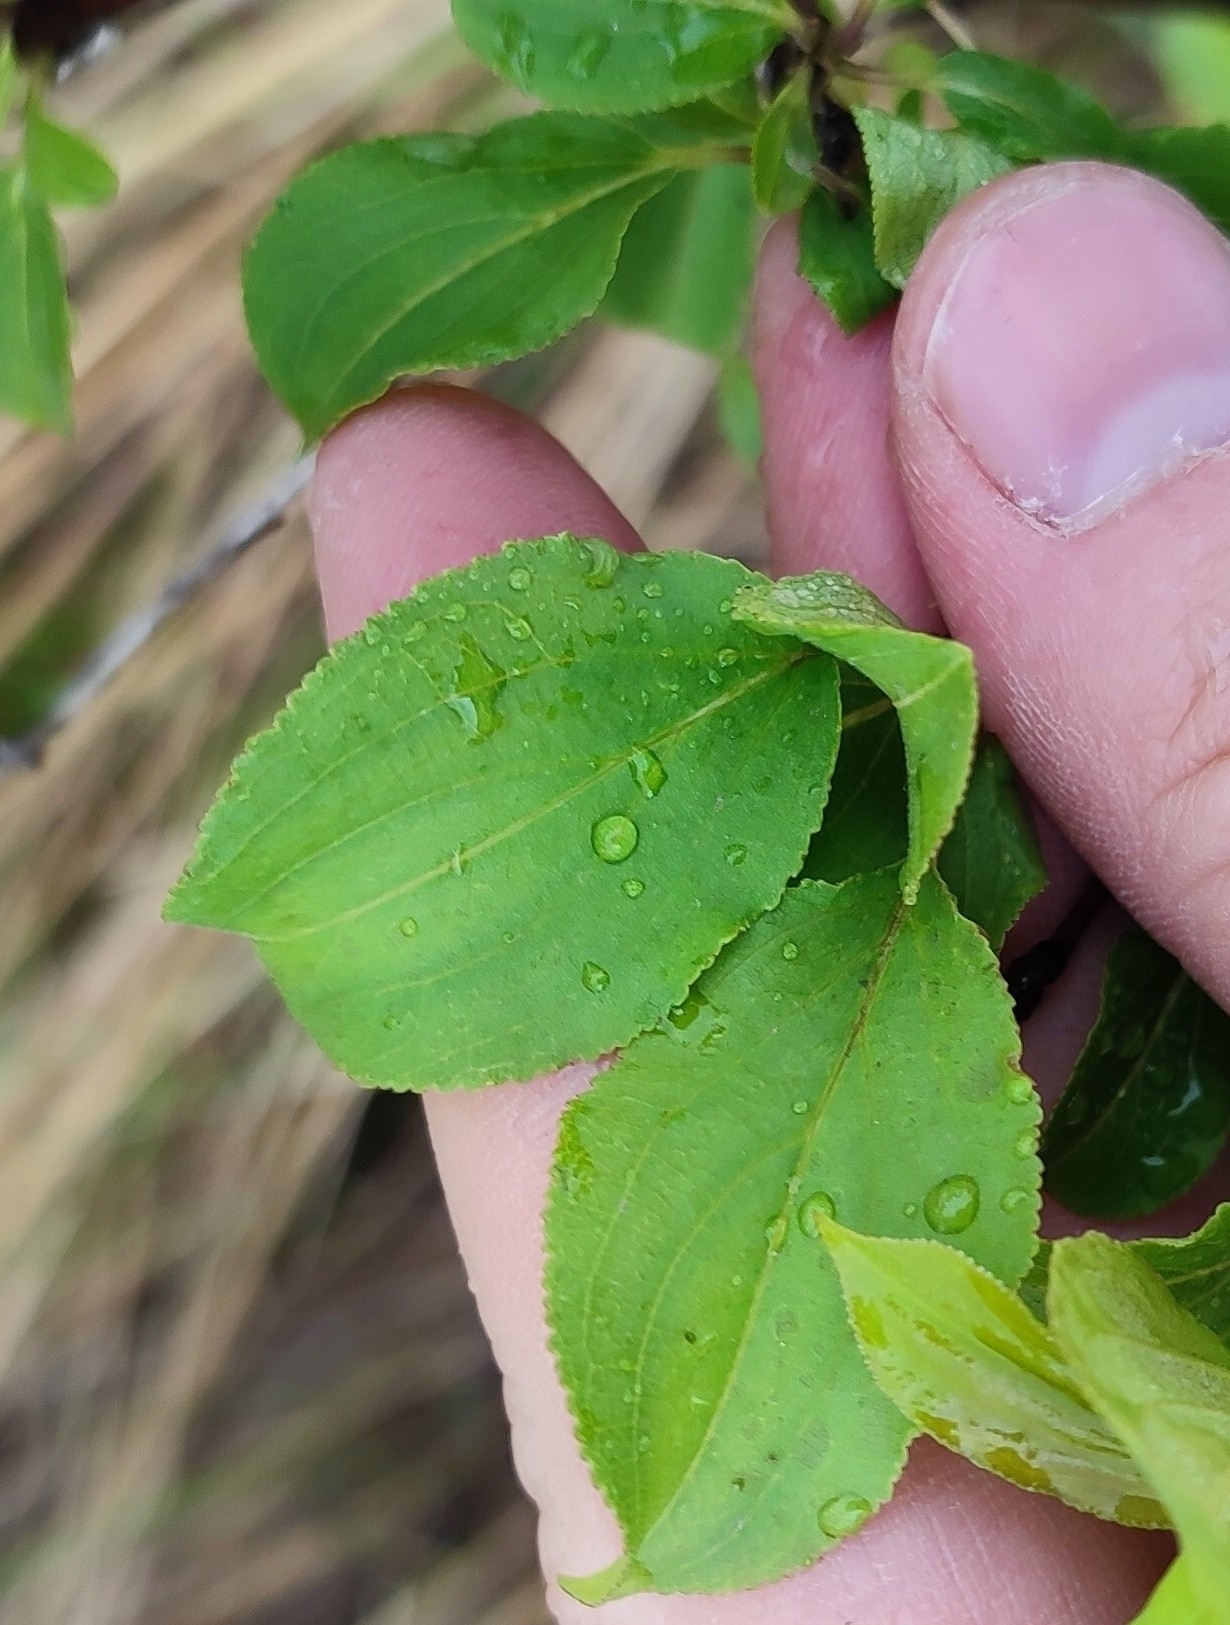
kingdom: Plantae
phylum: Tracheophyta
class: Magnoliopsida
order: Rosales
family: Rhamnaceae
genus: Rhamnus
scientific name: Rhamnus cathartica
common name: Common buckthorn
